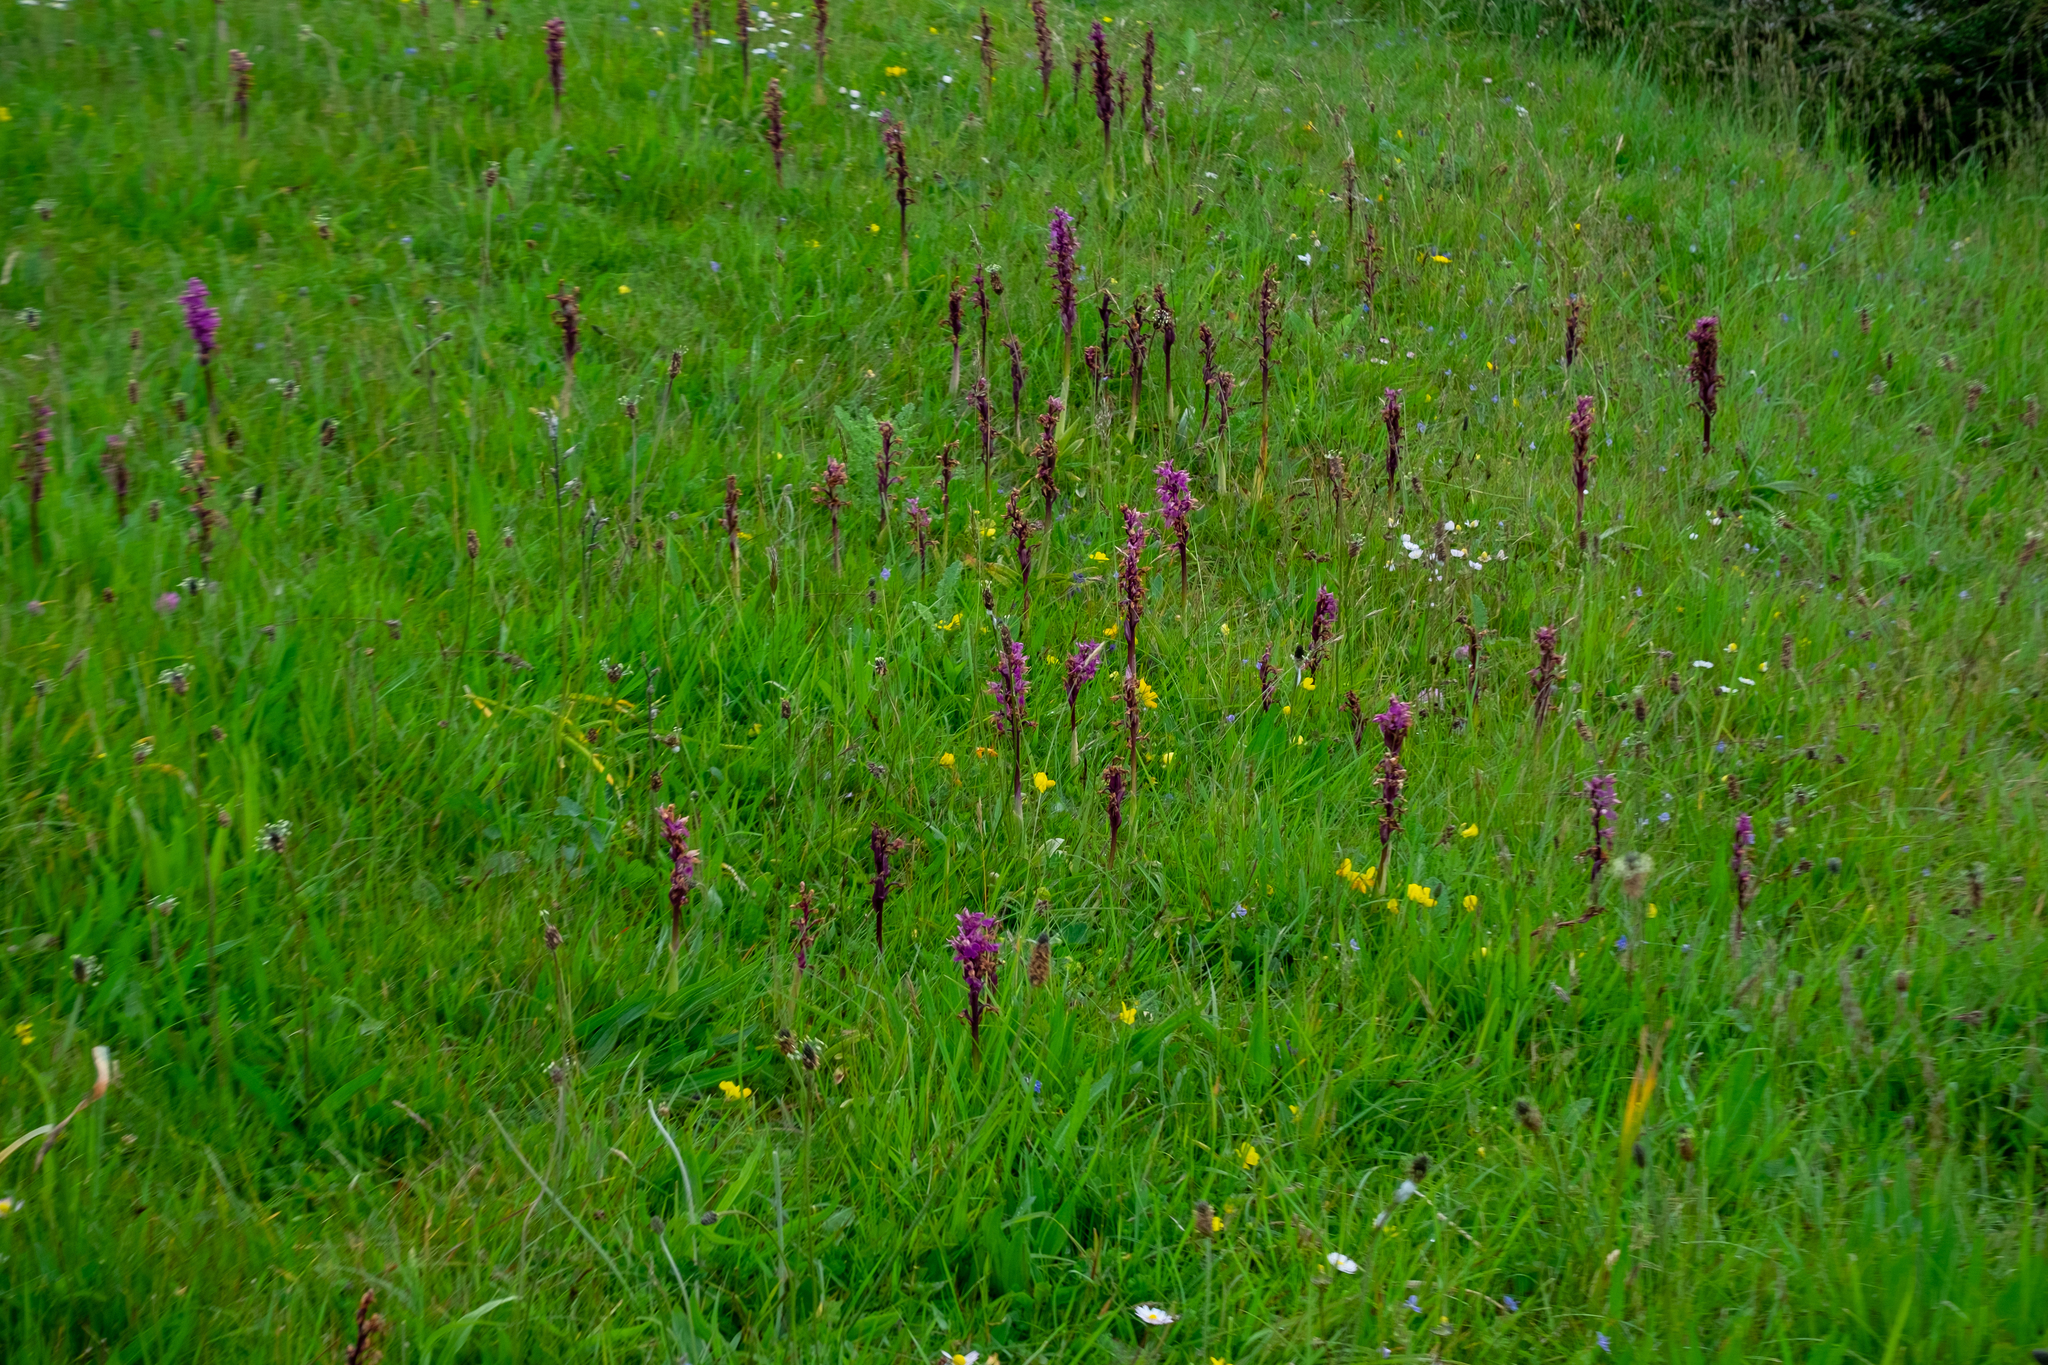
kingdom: Plantae
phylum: Tracheophyta
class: Liliopsida
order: Asparagales
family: Orchidaceae
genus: Orchis
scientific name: Orchis mascula
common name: Early-purple orchid
